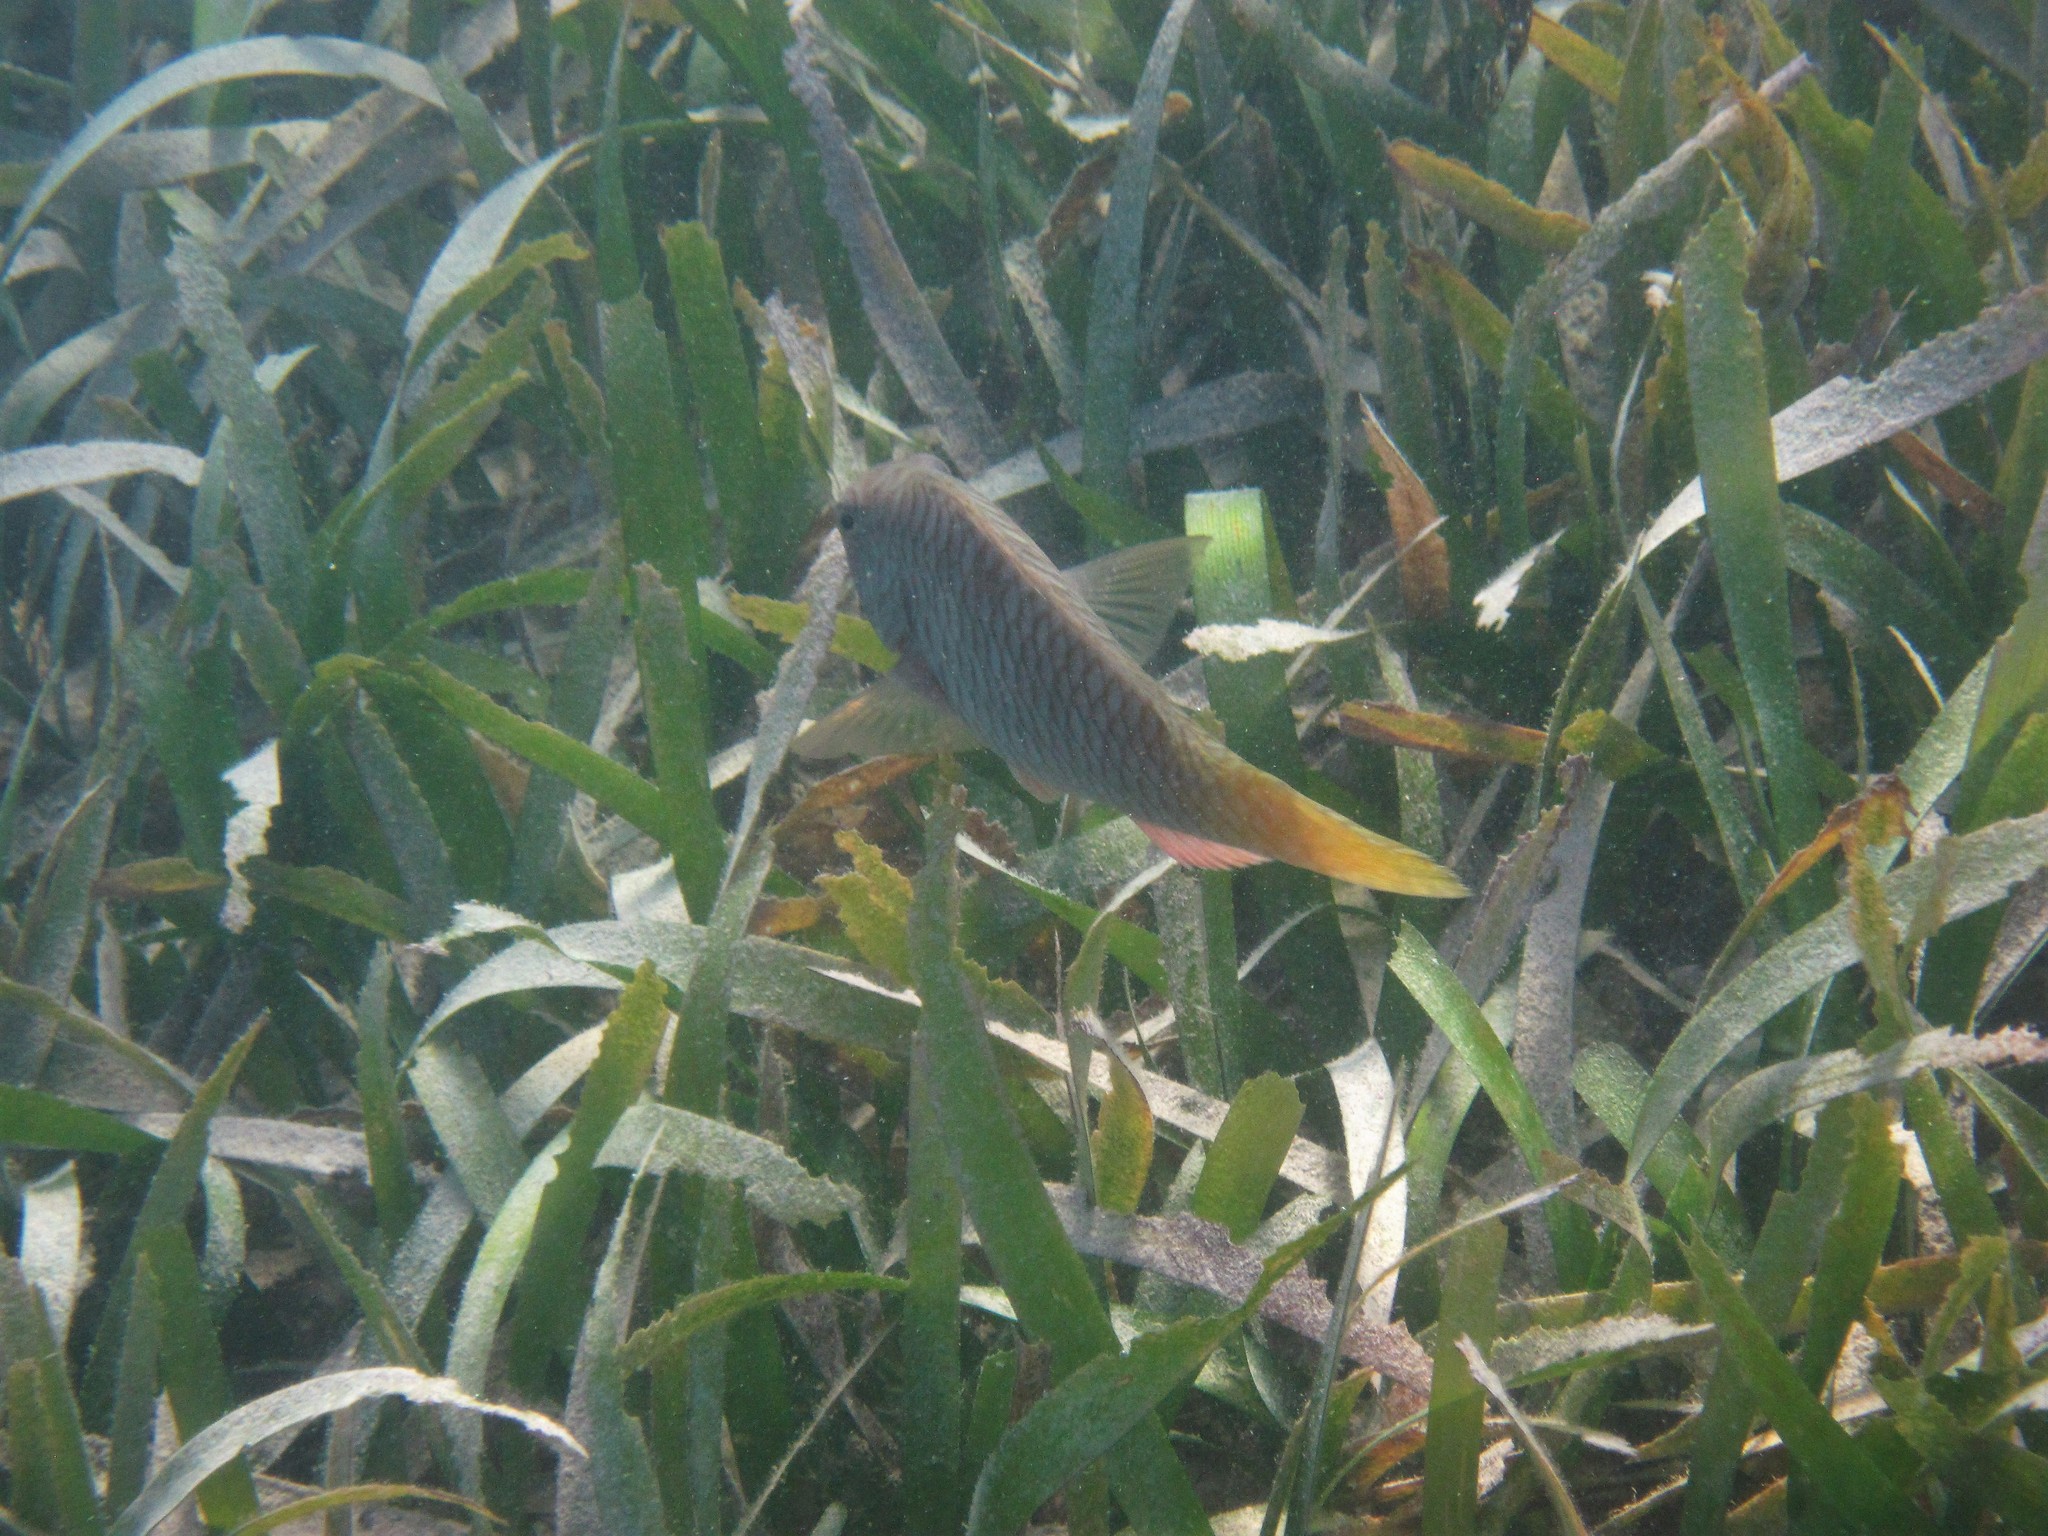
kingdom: Animalia
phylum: Chordata
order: Perciformes
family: Scaridae
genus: Sparisoma
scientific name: Sparisoma rubripinne
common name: Redfin parrotfish
